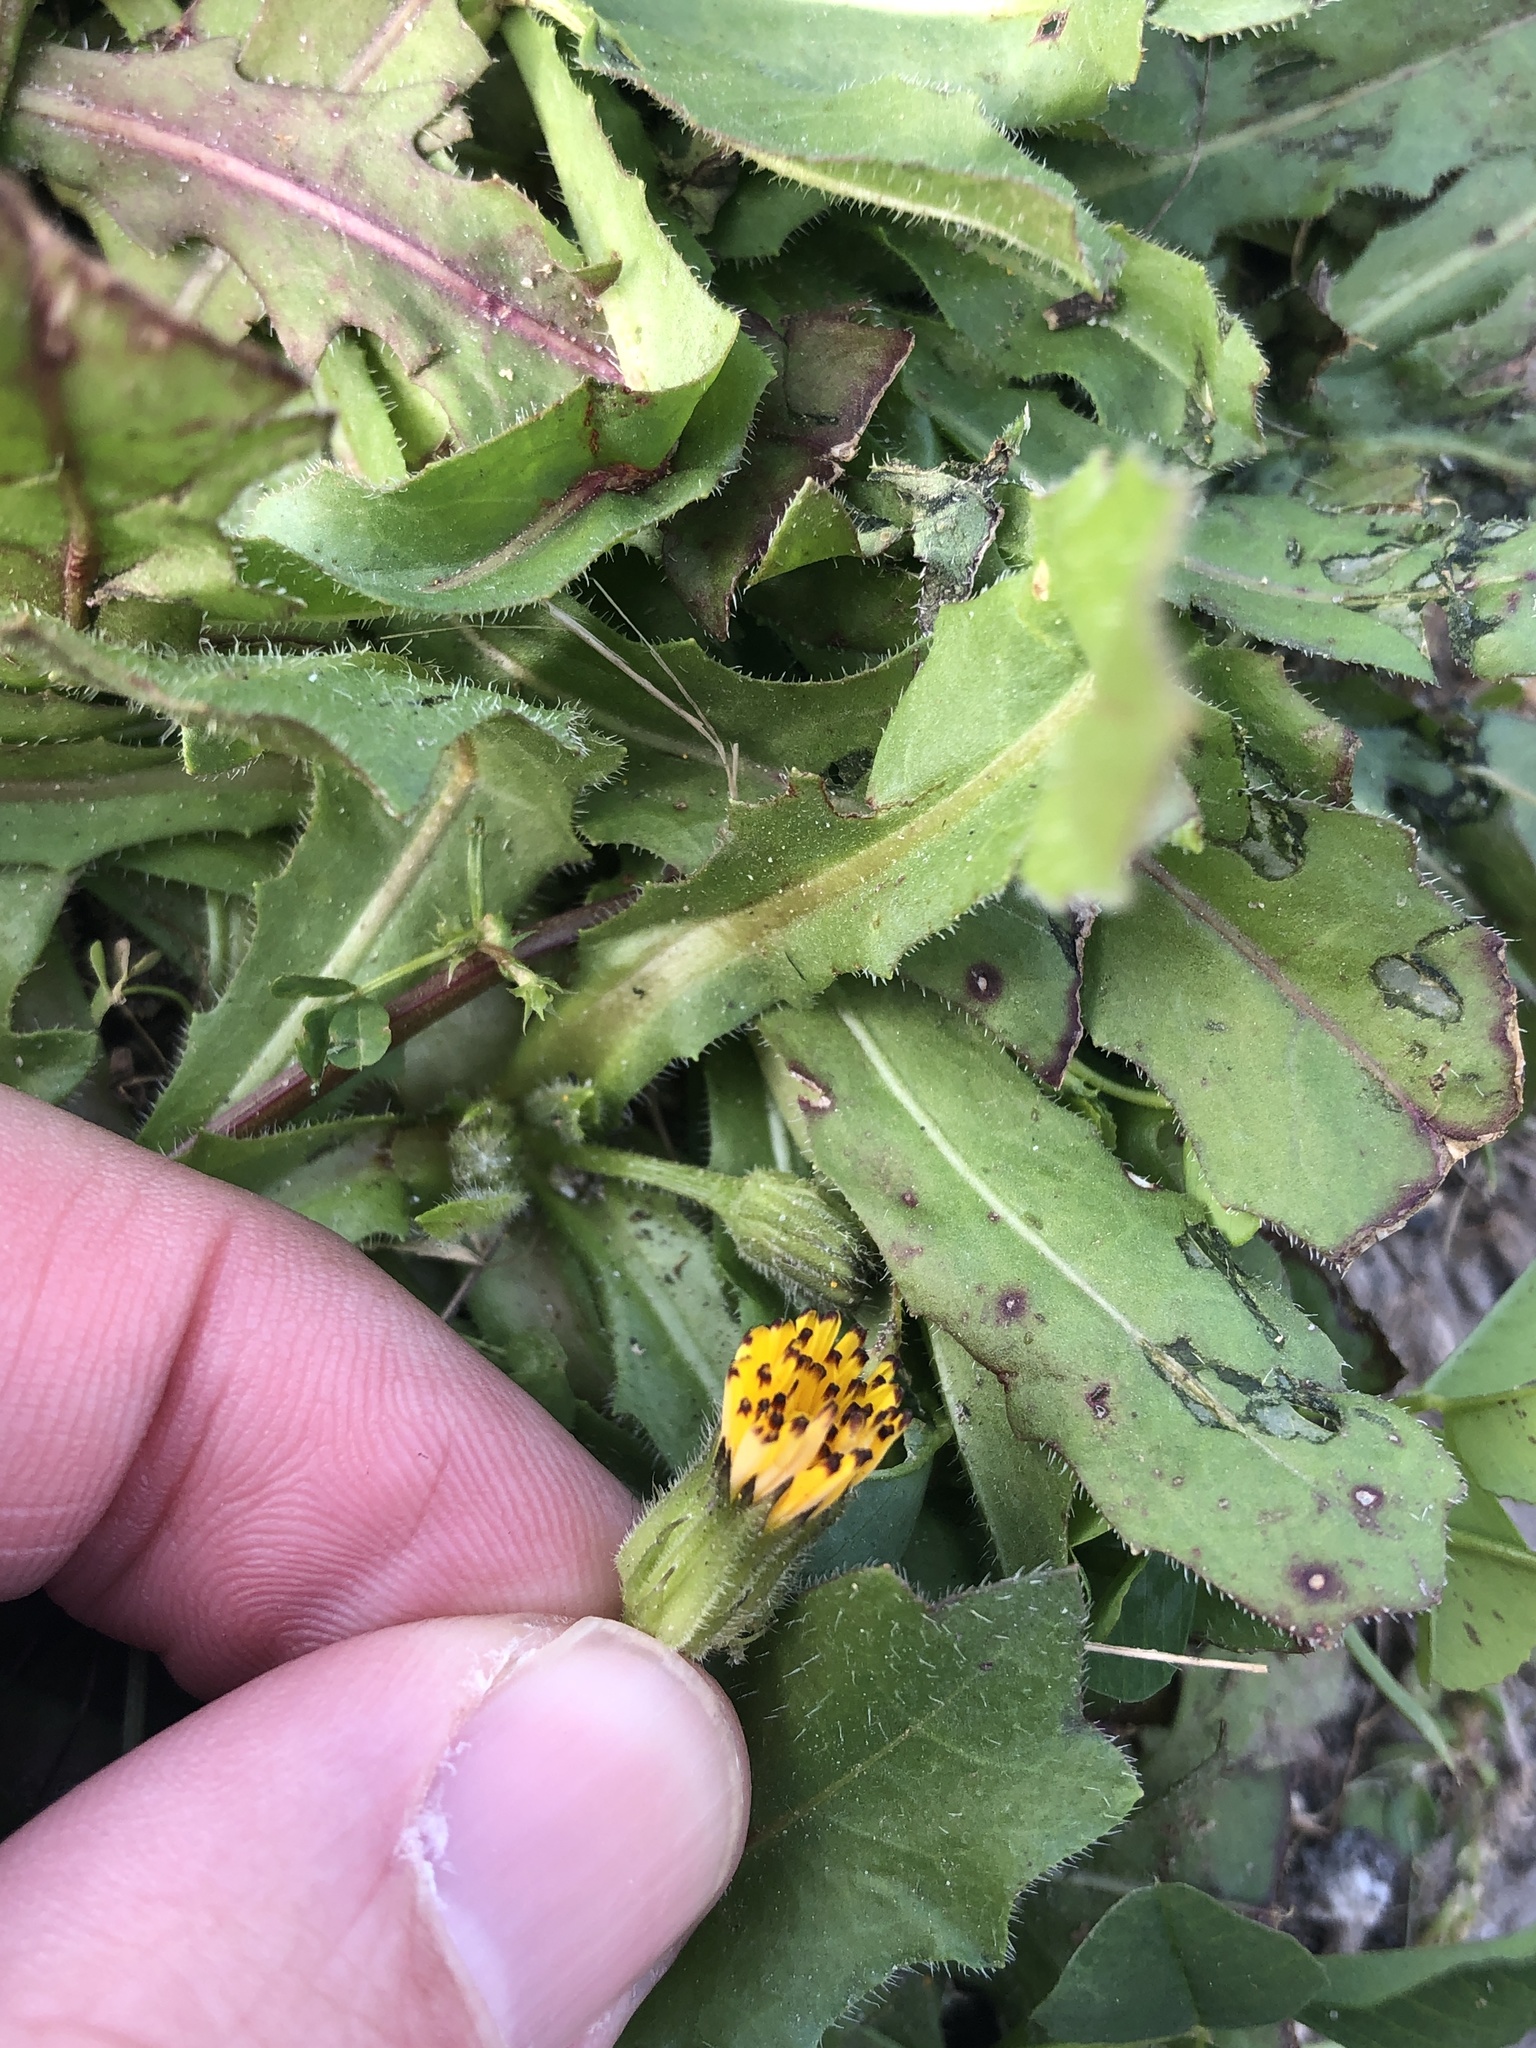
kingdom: Plantae
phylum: Tracheophyta
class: Magnoliopsida
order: Asterales
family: Asteraceae
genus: Hedypnois
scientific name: Hedypnois rhagadioloides
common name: Cretan weed
